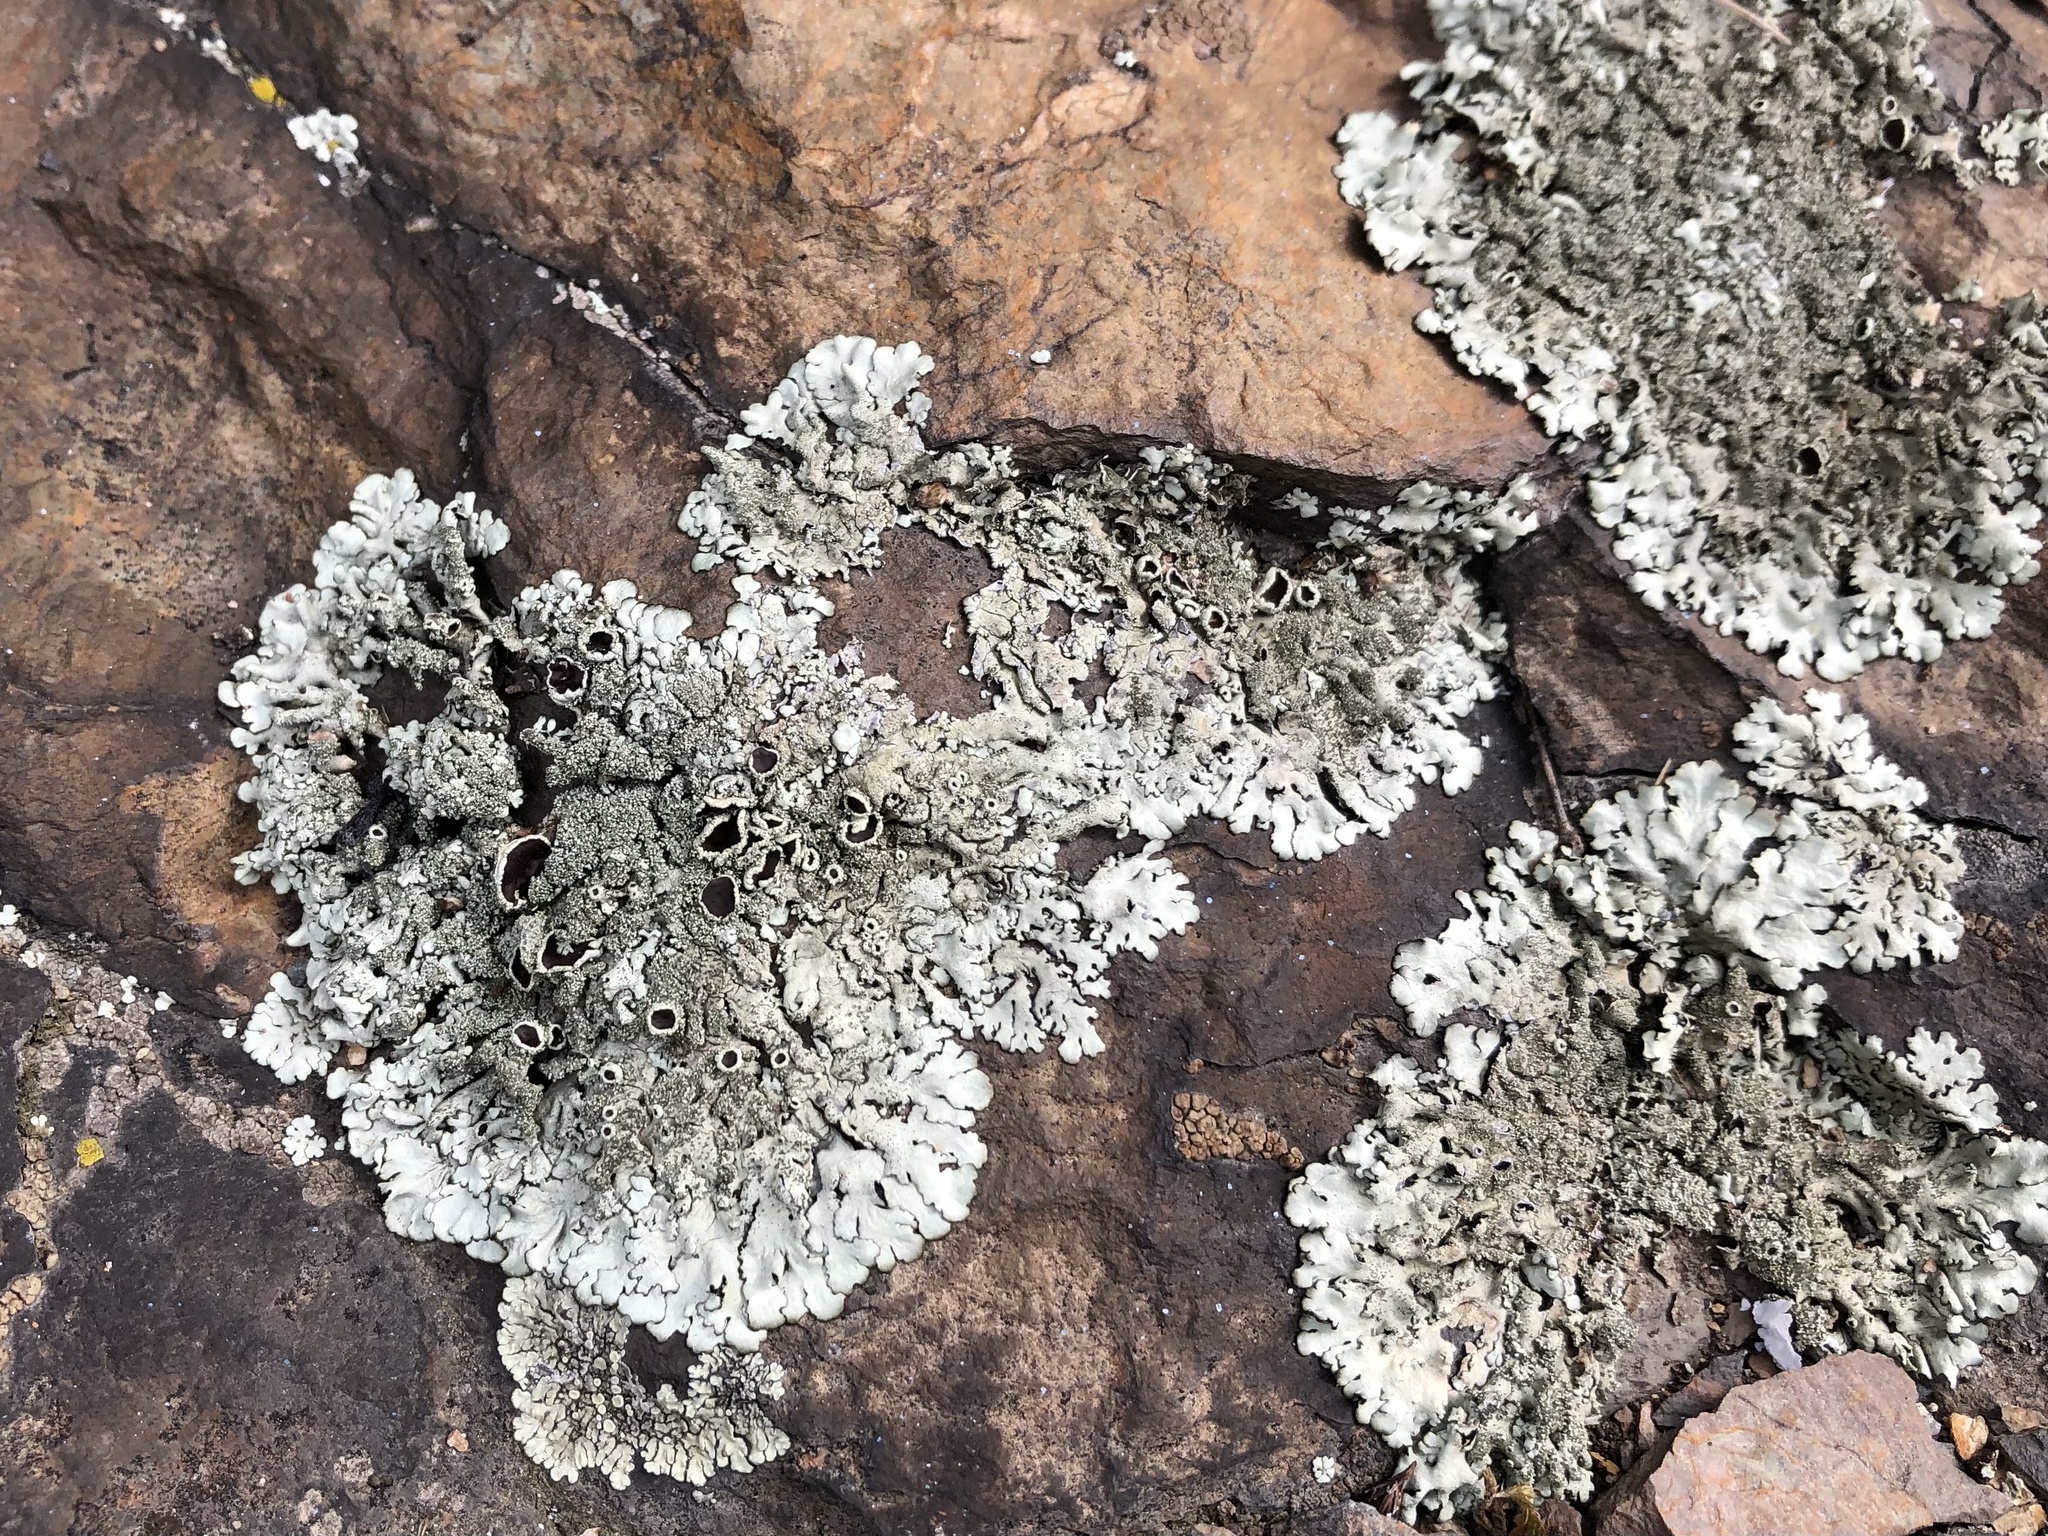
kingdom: Fungi
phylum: Ascomycota
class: Lecanoromycetes
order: Lecanorales
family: Parmeliaceae
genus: Xanthoparmelia
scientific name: Xanthoparmelia conspersa
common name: Peppered rock shield
